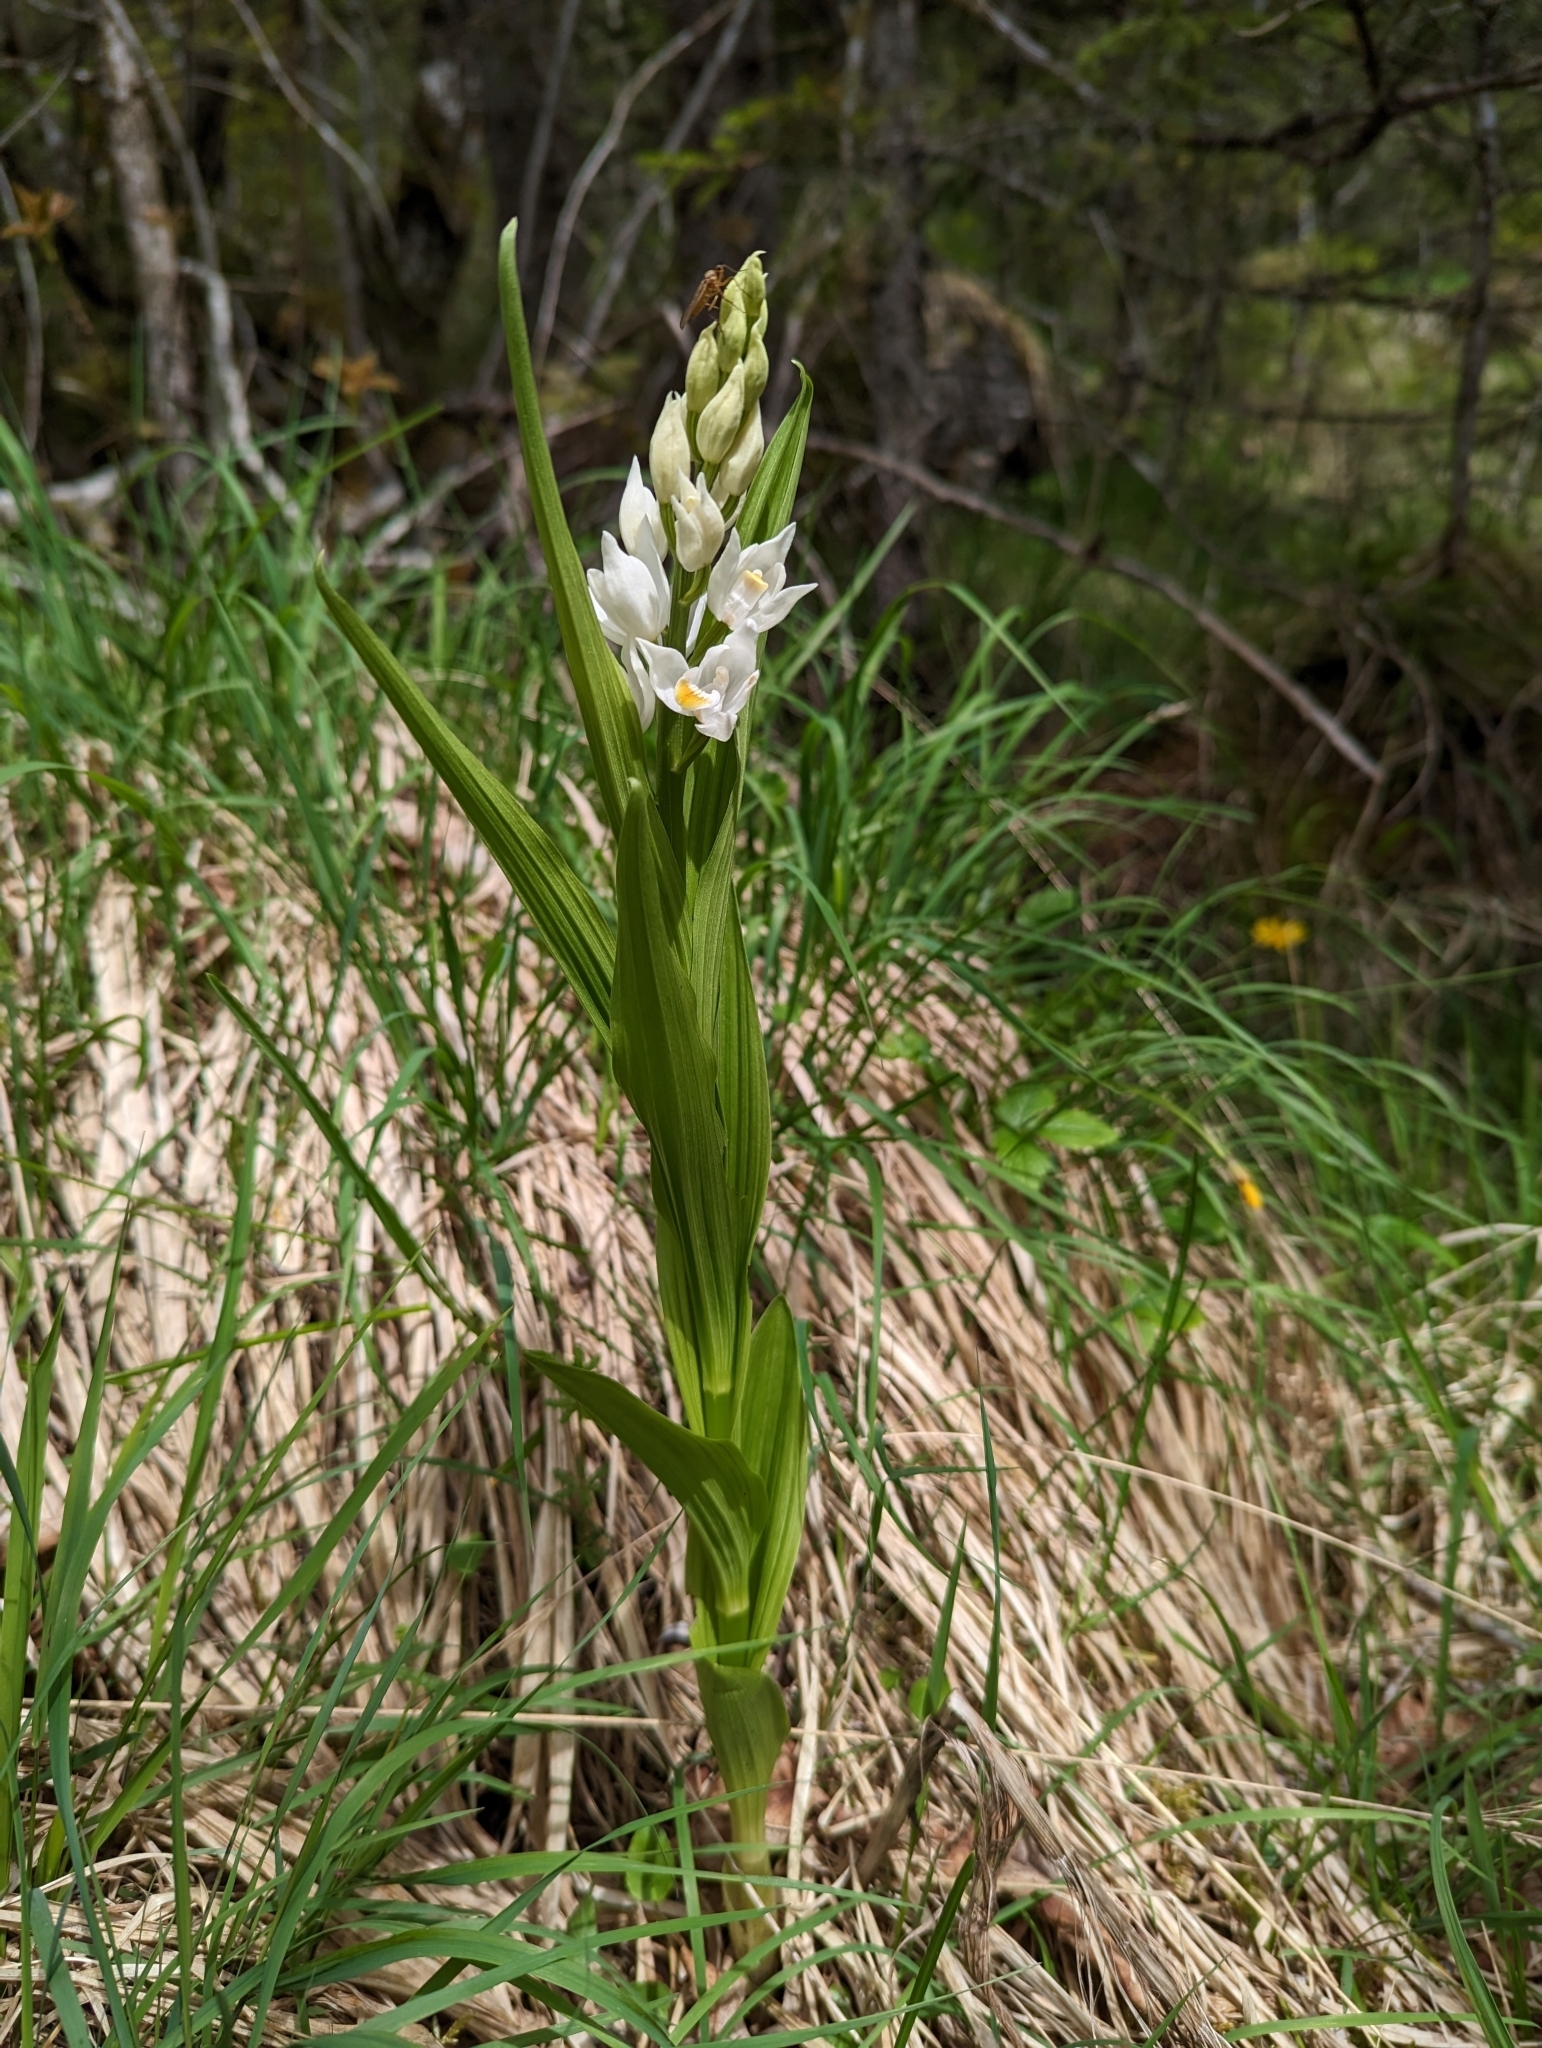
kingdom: Plantae
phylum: Tracheophyta
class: Liliopsida
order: Asparagales
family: Orchidaceae
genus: Cephalanthera
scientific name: Cephalanthera longifolia
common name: Narrow-leaved helleborine
